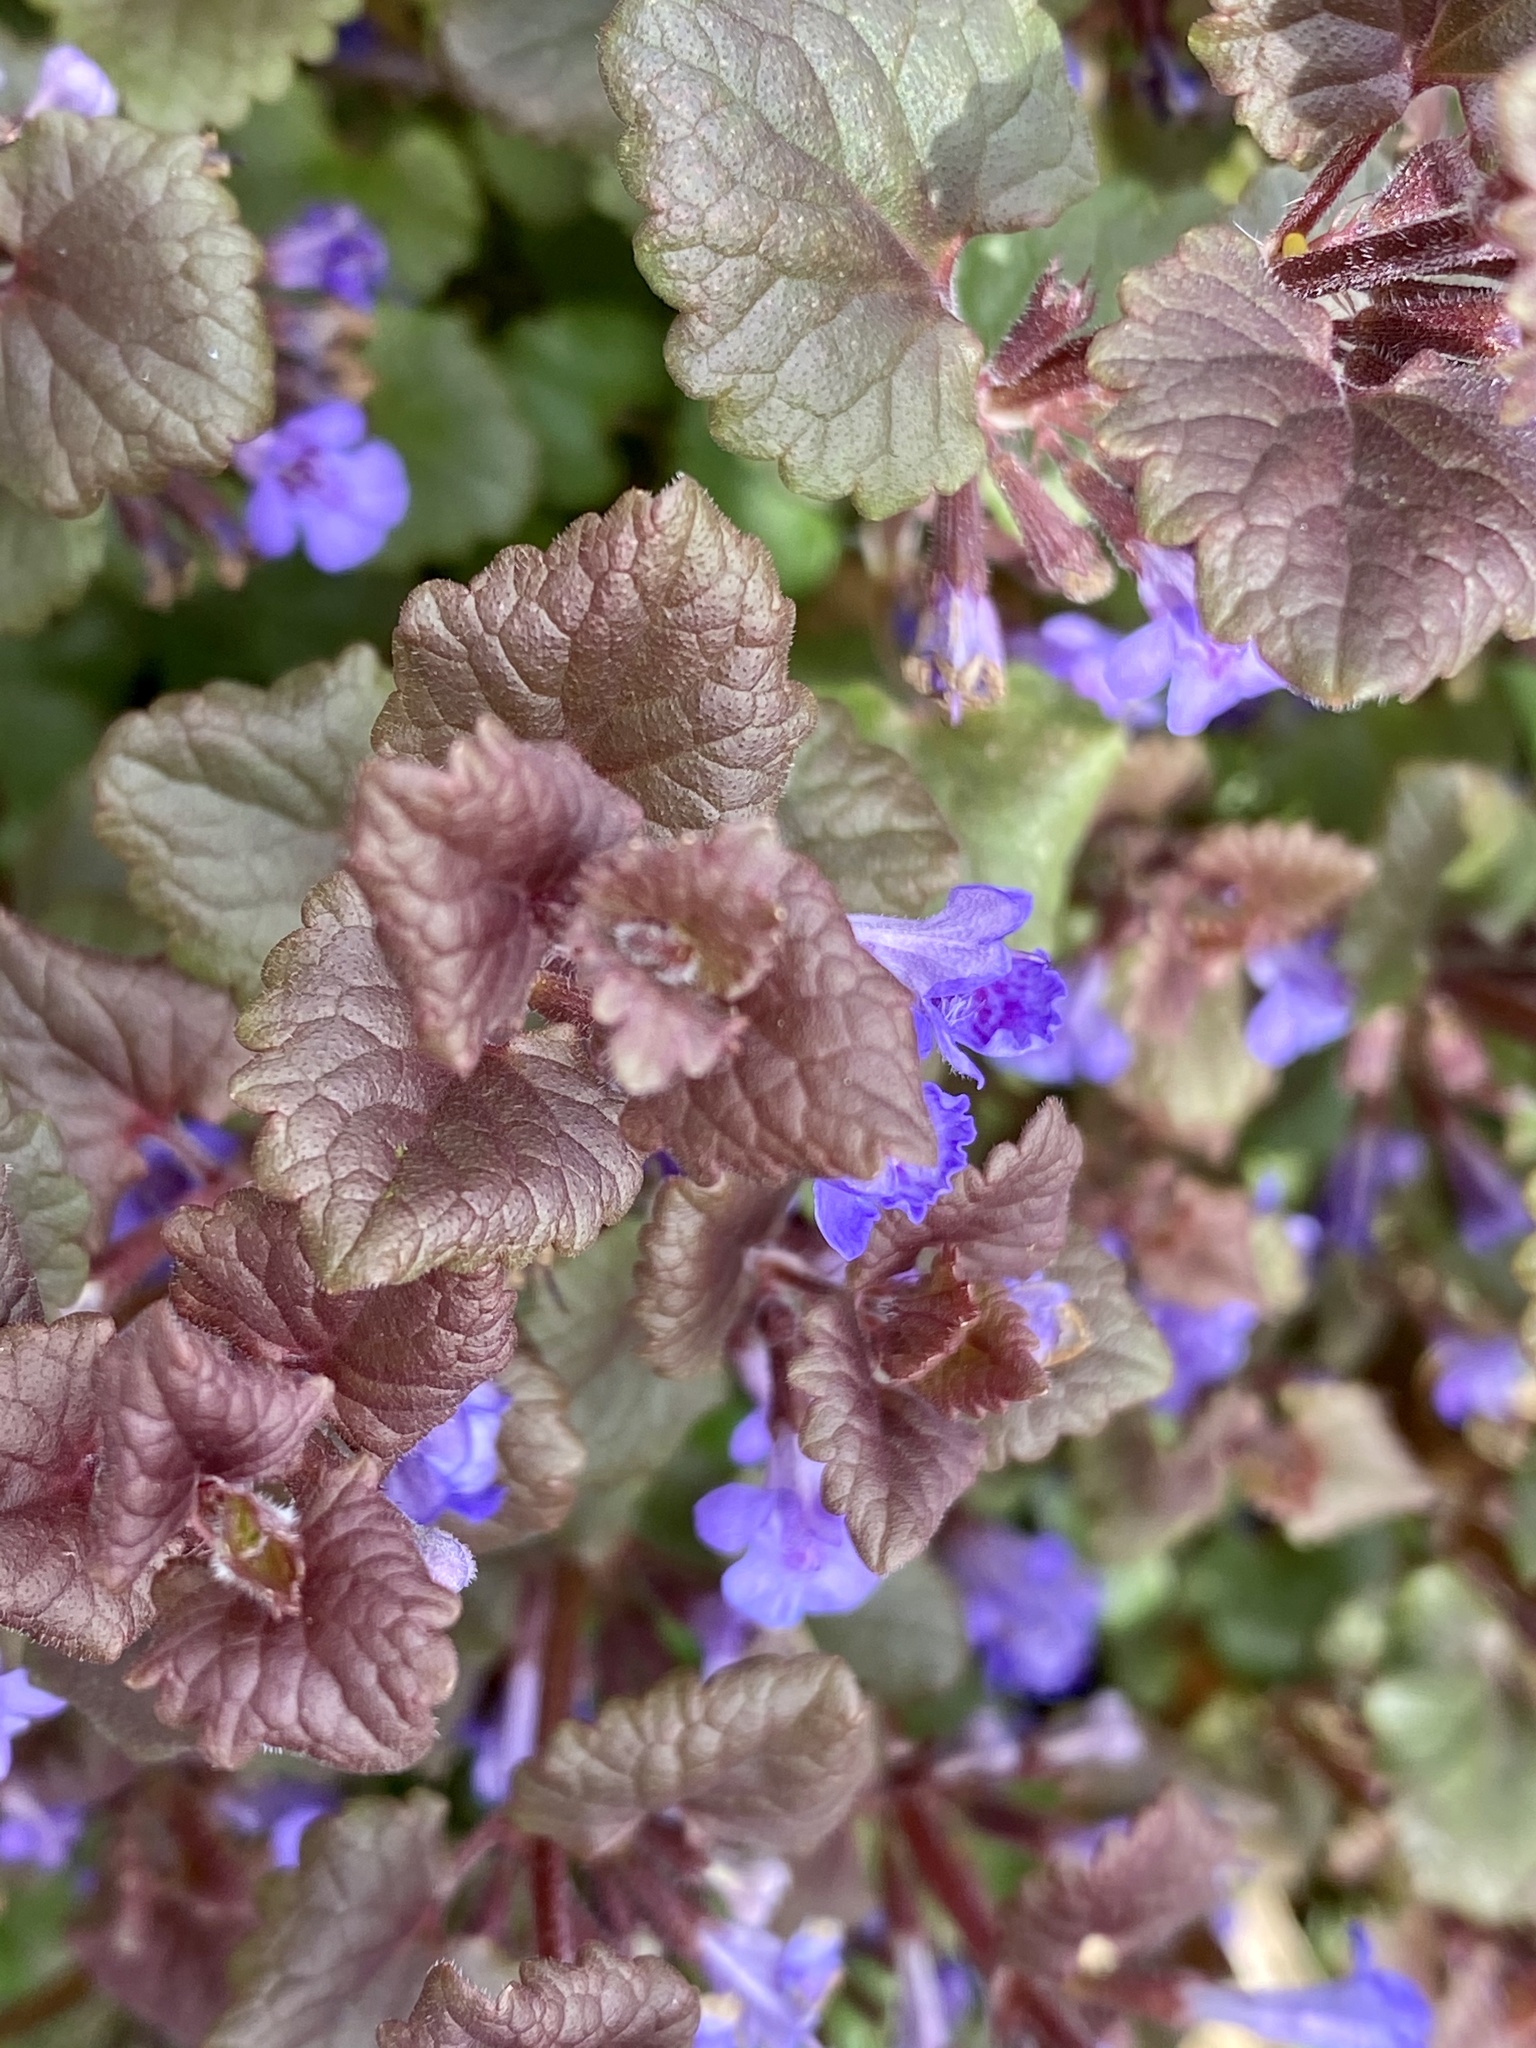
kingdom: Plantae
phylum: Tracheophyta
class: Magnoliopsida
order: Lamiales
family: Lamiaceae
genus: Glechoma
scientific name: Glechoma hederacea
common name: Ground ivy
